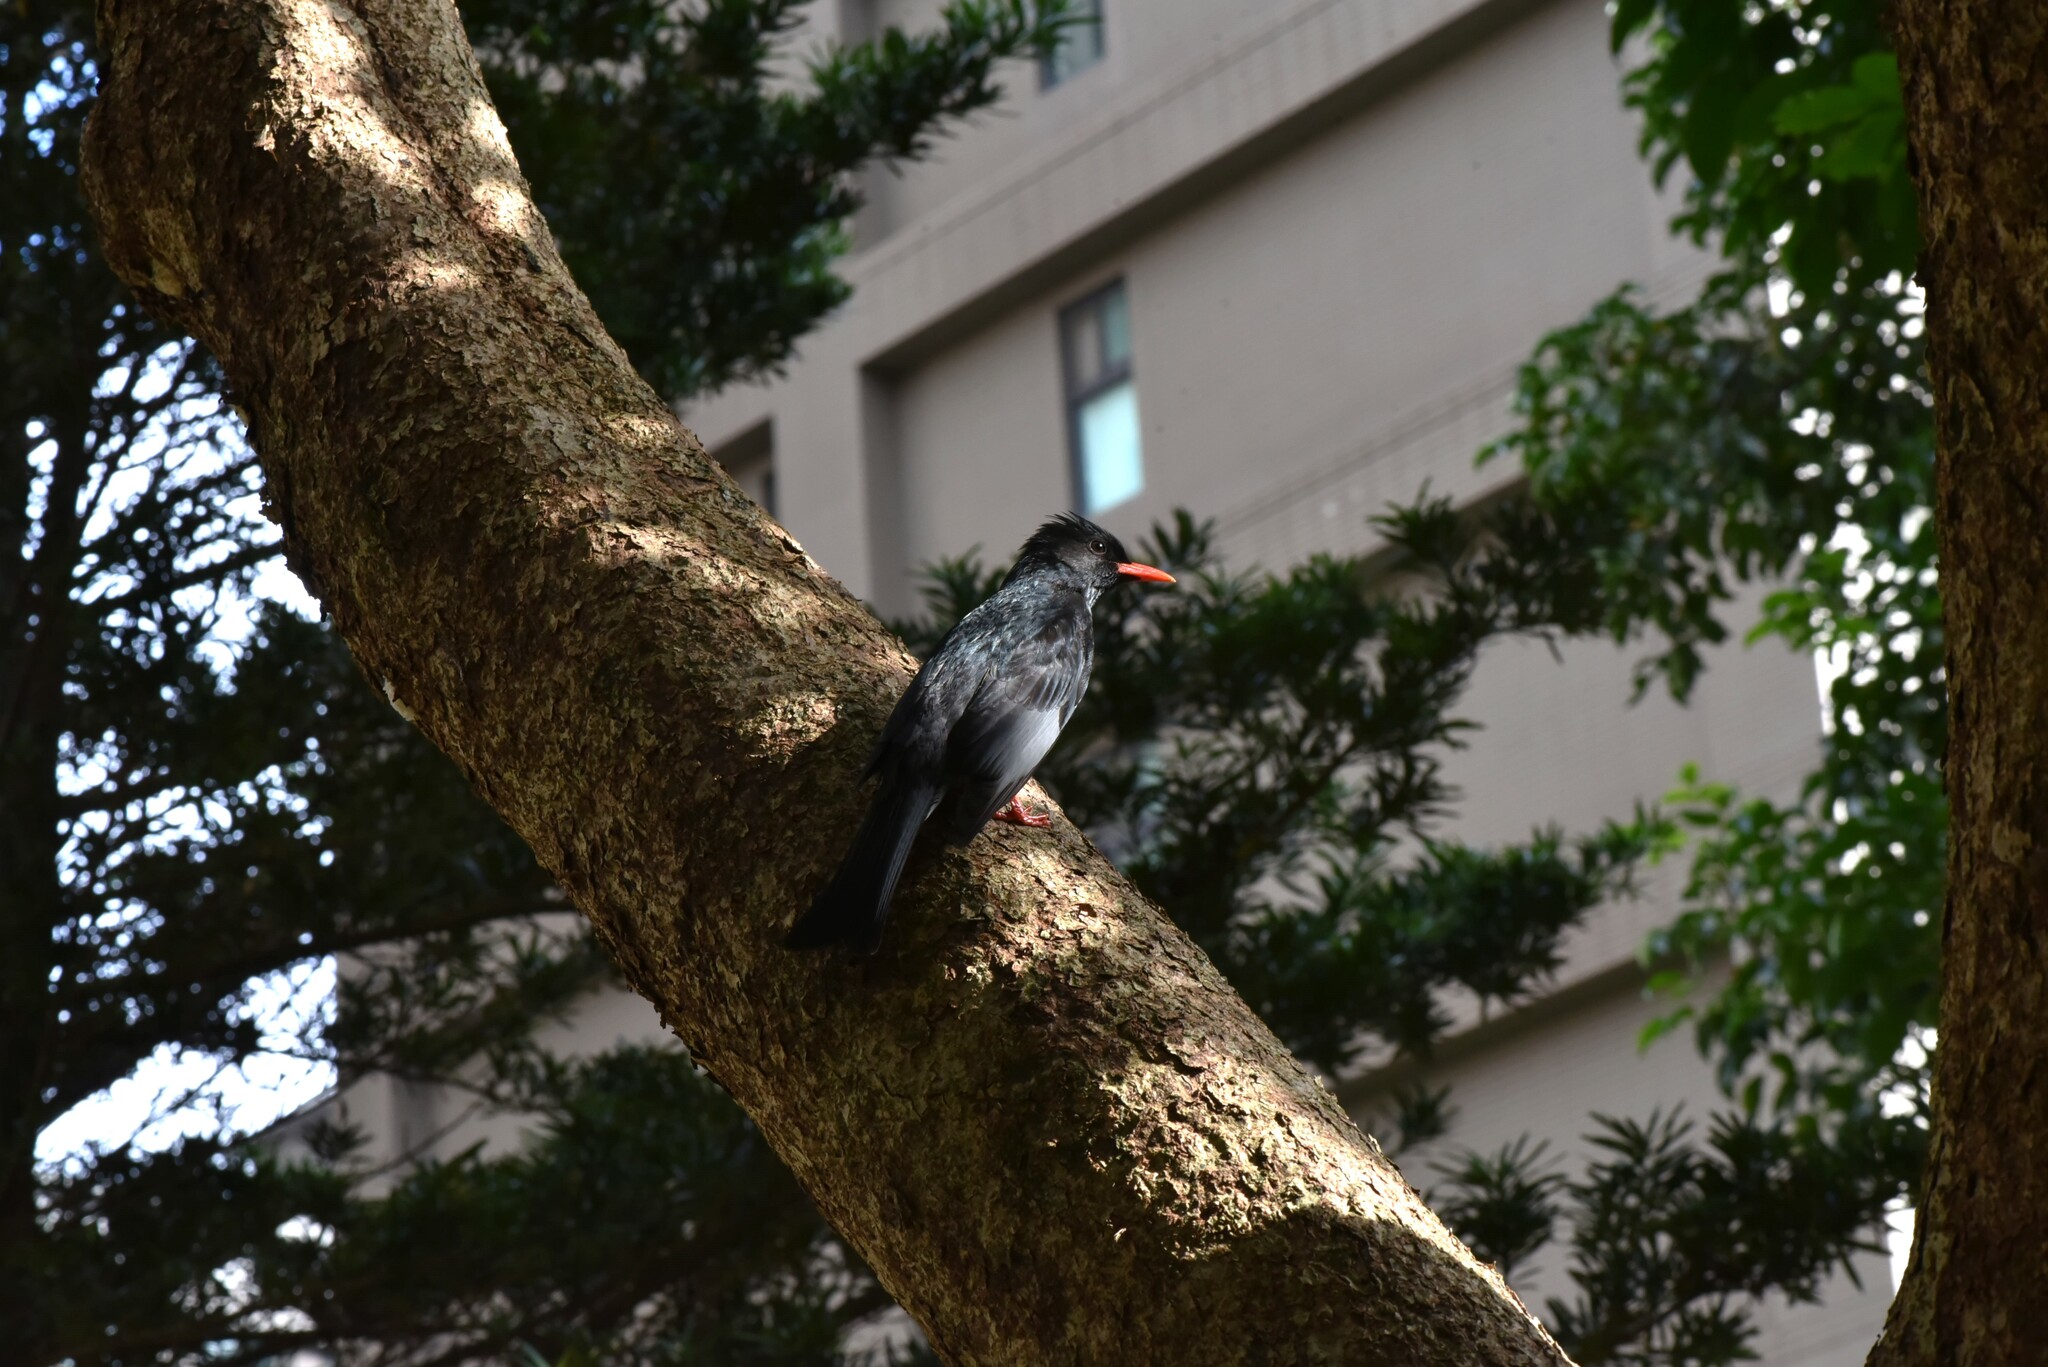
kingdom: Animalia
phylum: Chordata
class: Aves
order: Passeriformes
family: Pycnonotidae
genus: Hypsipetes
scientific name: Hypsipetes leucocephalus
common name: Black bulbul
